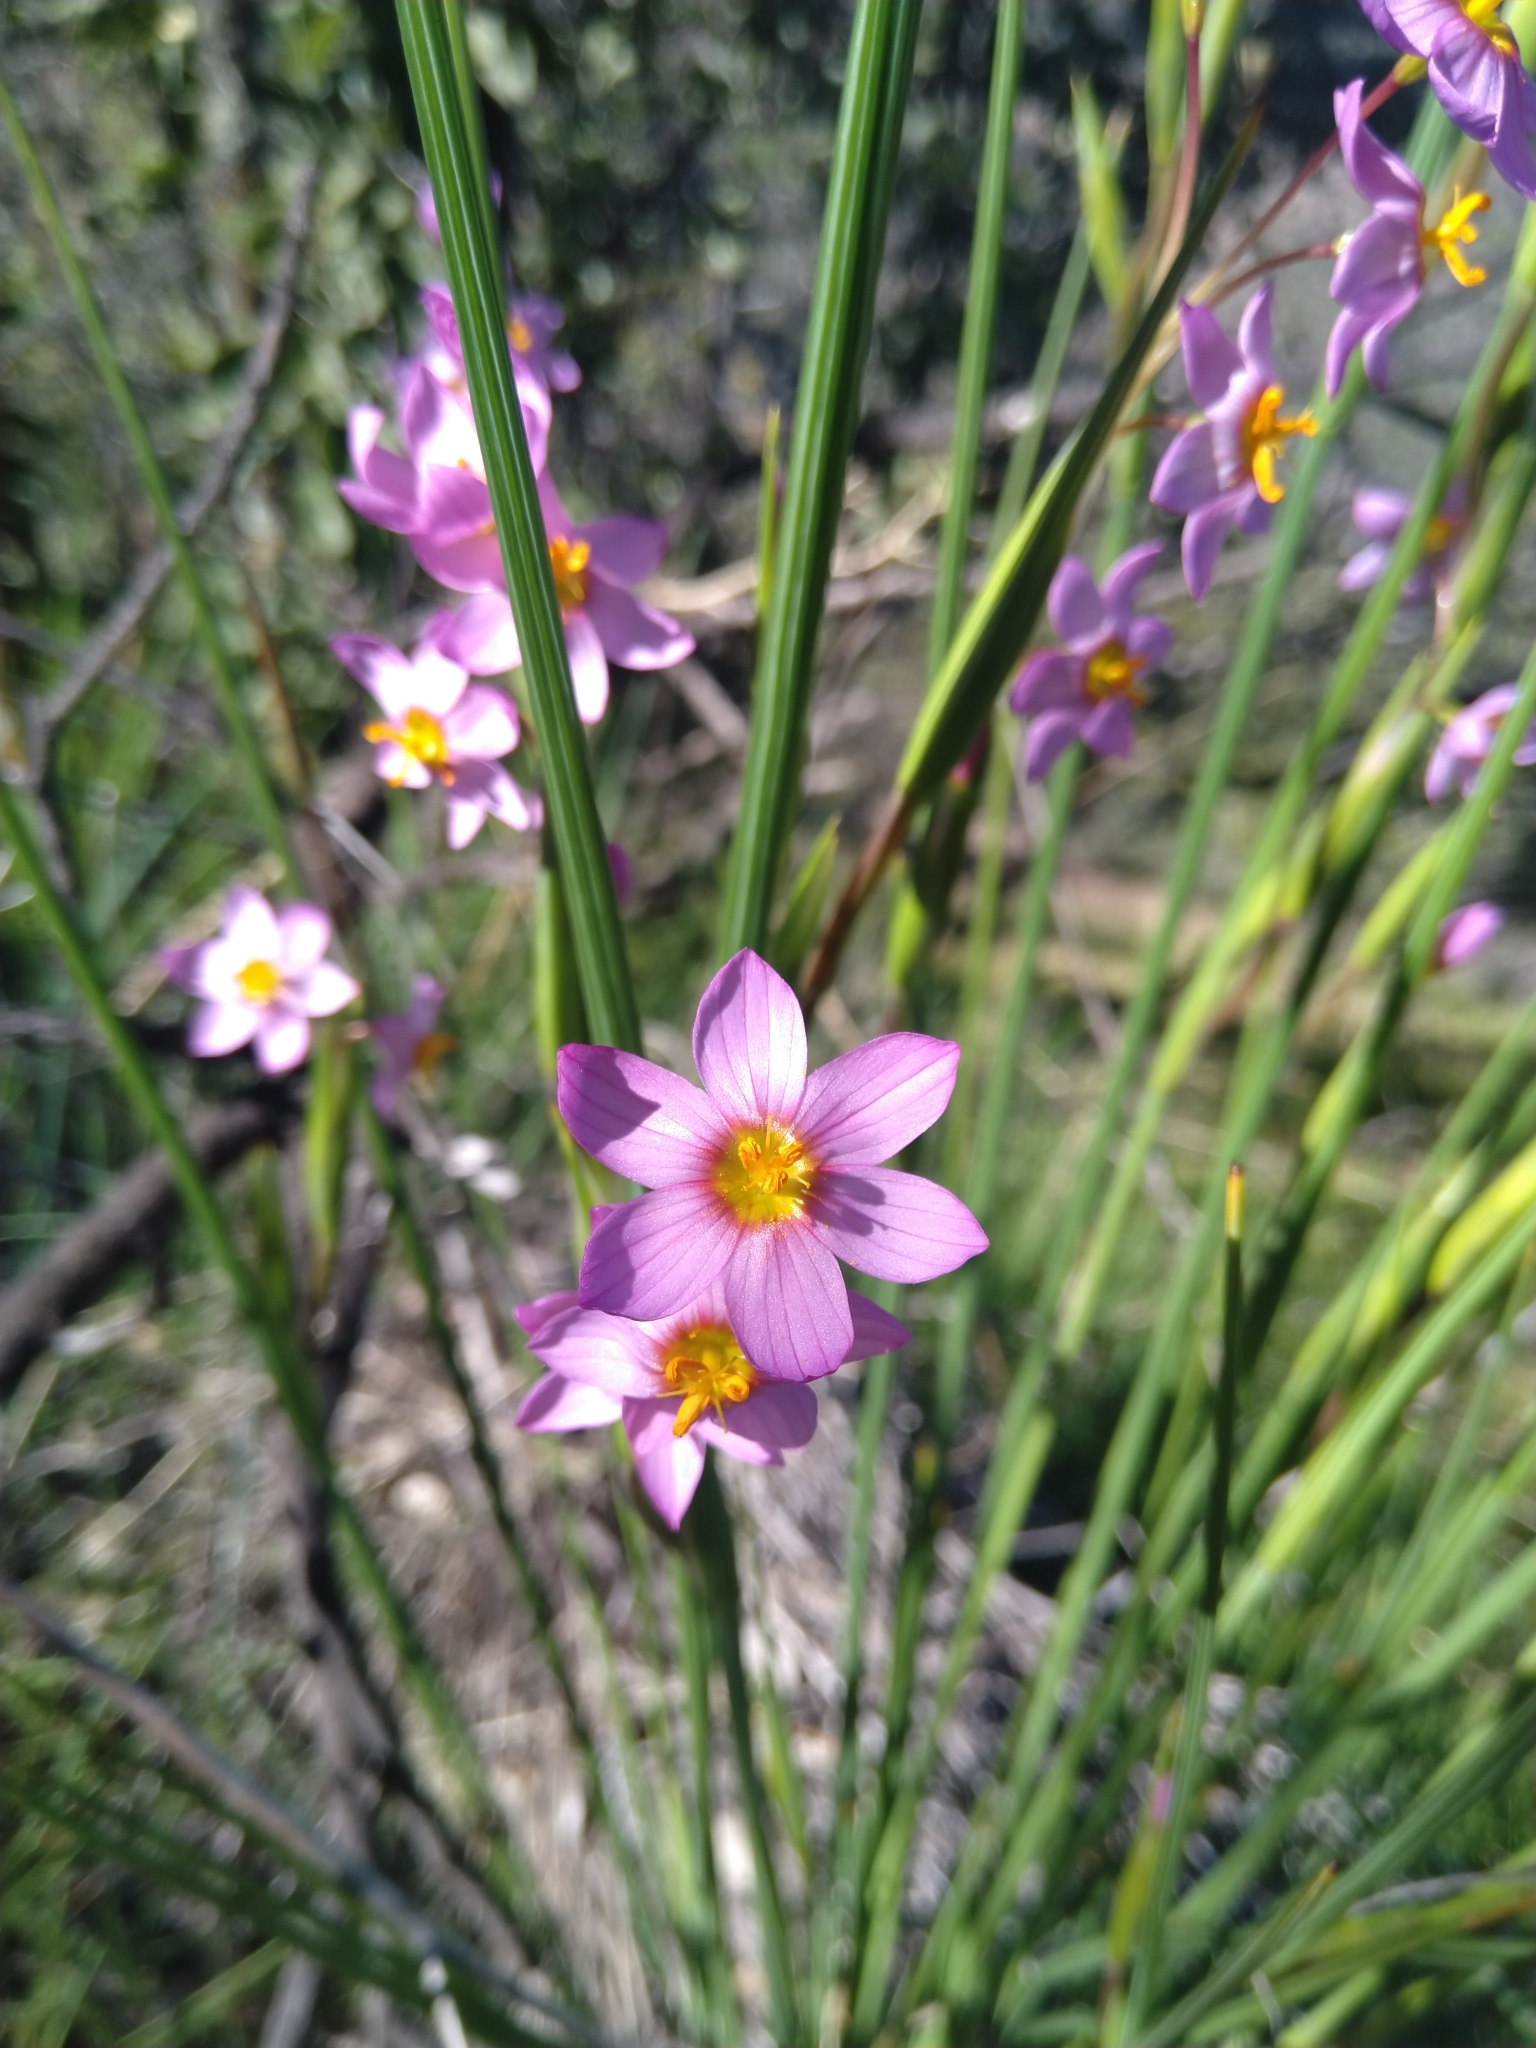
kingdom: Plantae
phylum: Tracheophyta
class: Liliopsida
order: Asparagales
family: Iridaceae
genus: Olsynium
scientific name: Olsynium junceum
